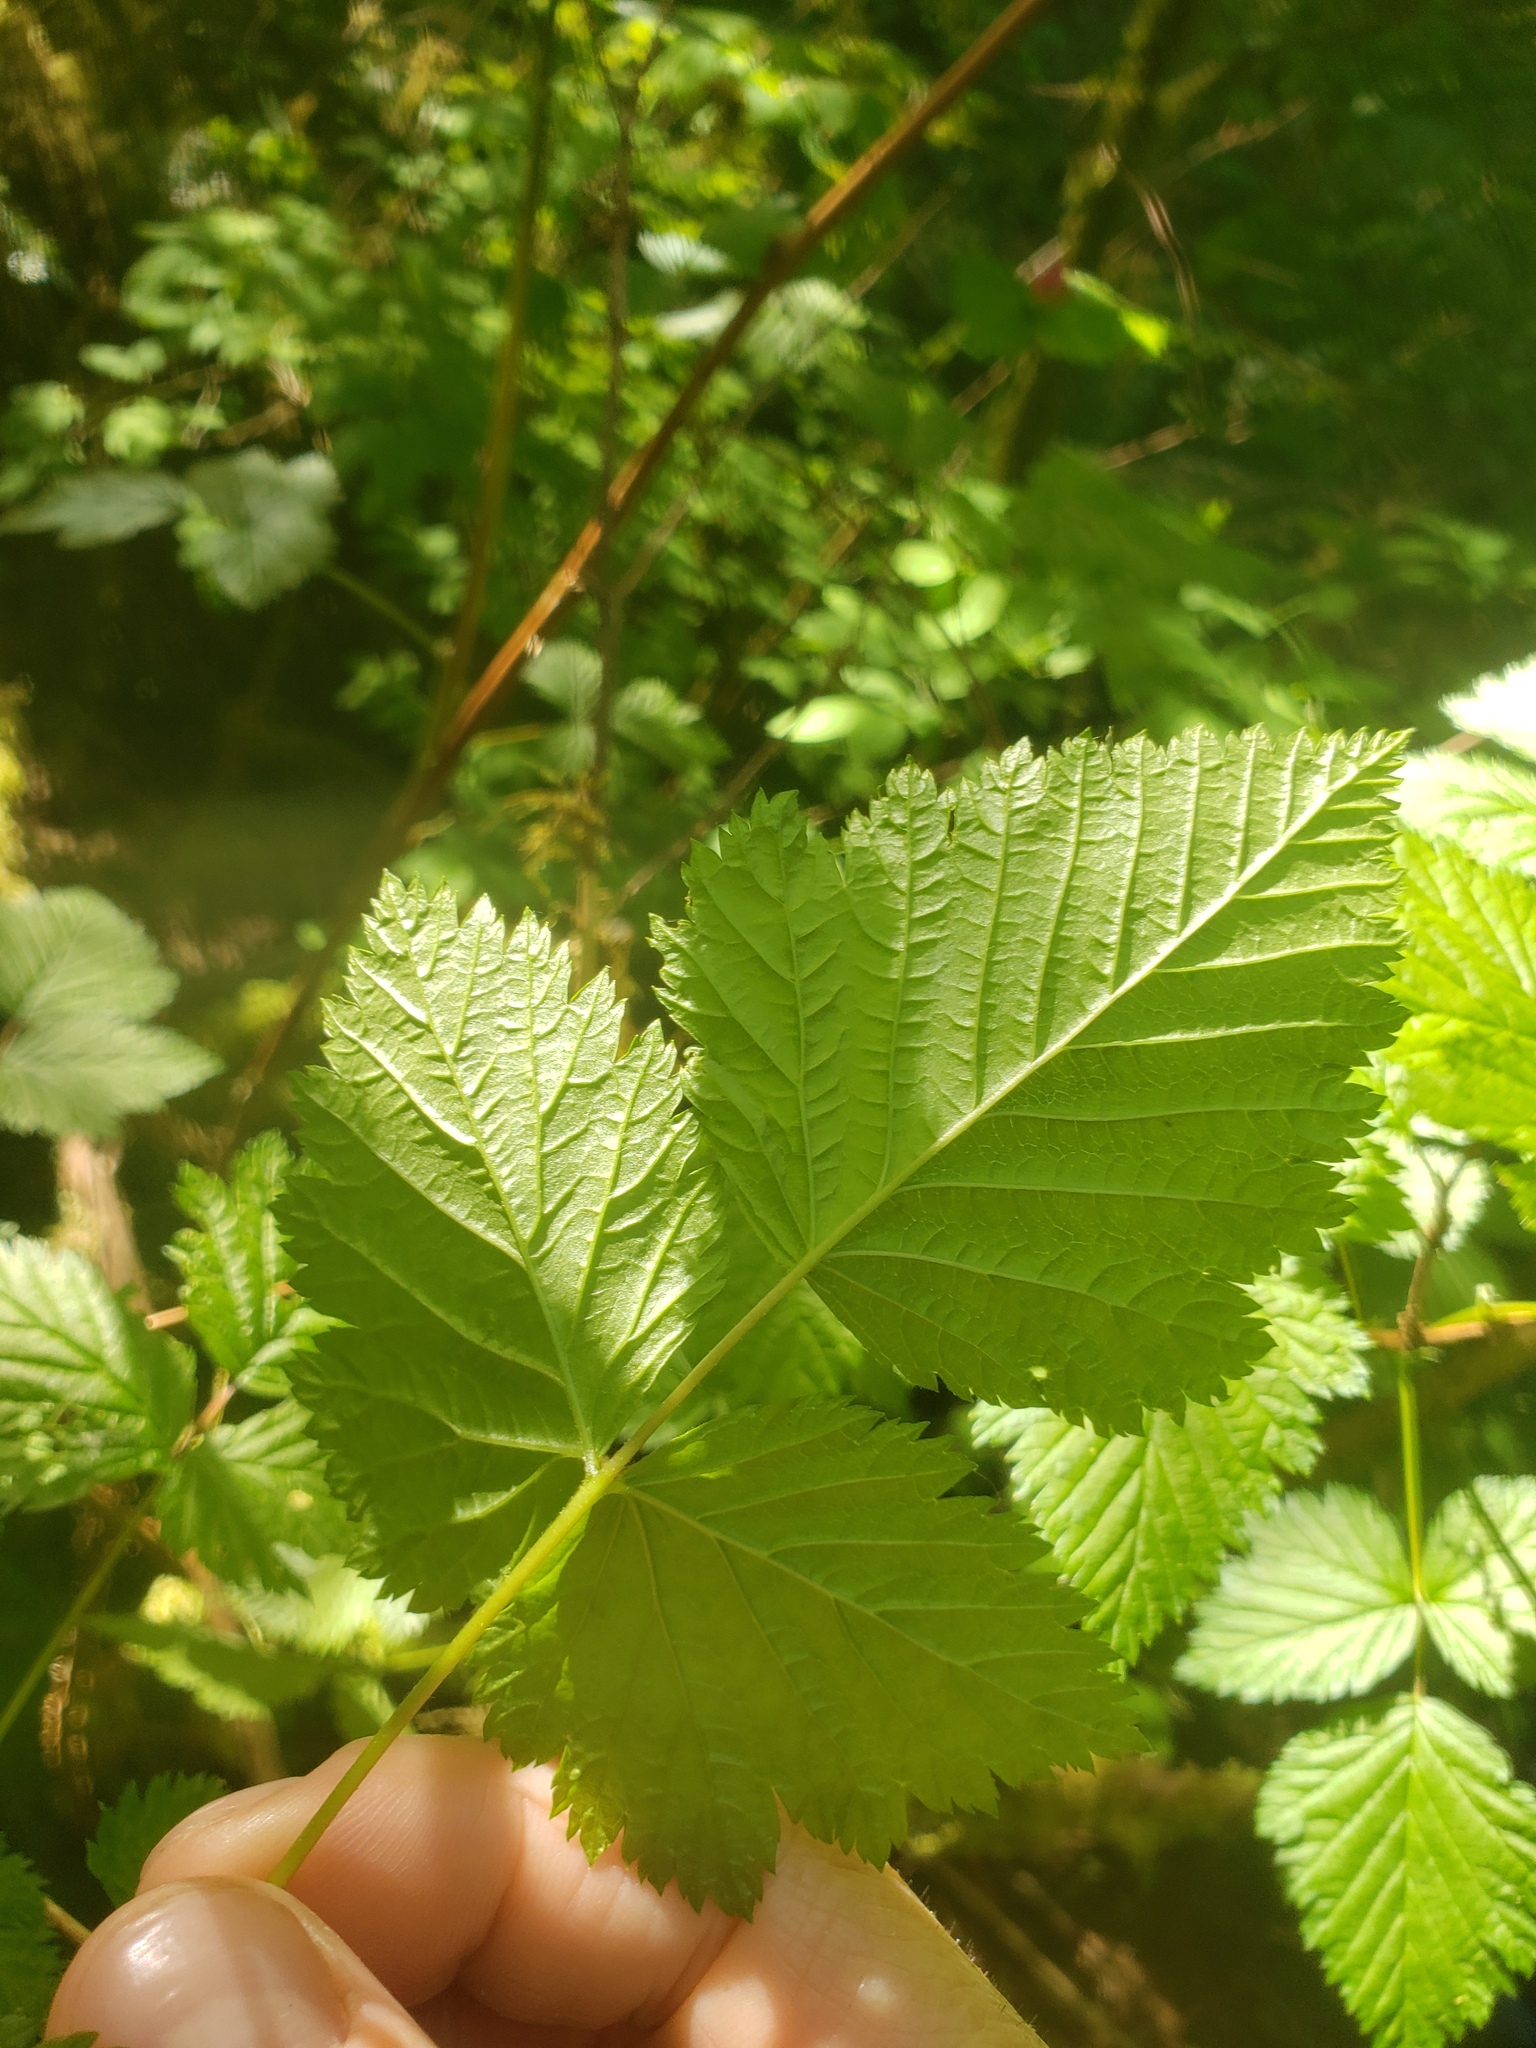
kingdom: Plantae
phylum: Tracheophyta
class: Magnoliopsida
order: Rosales
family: Rosaceae
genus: Rubus
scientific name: Rubus spectabilis
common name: Salmonberry
